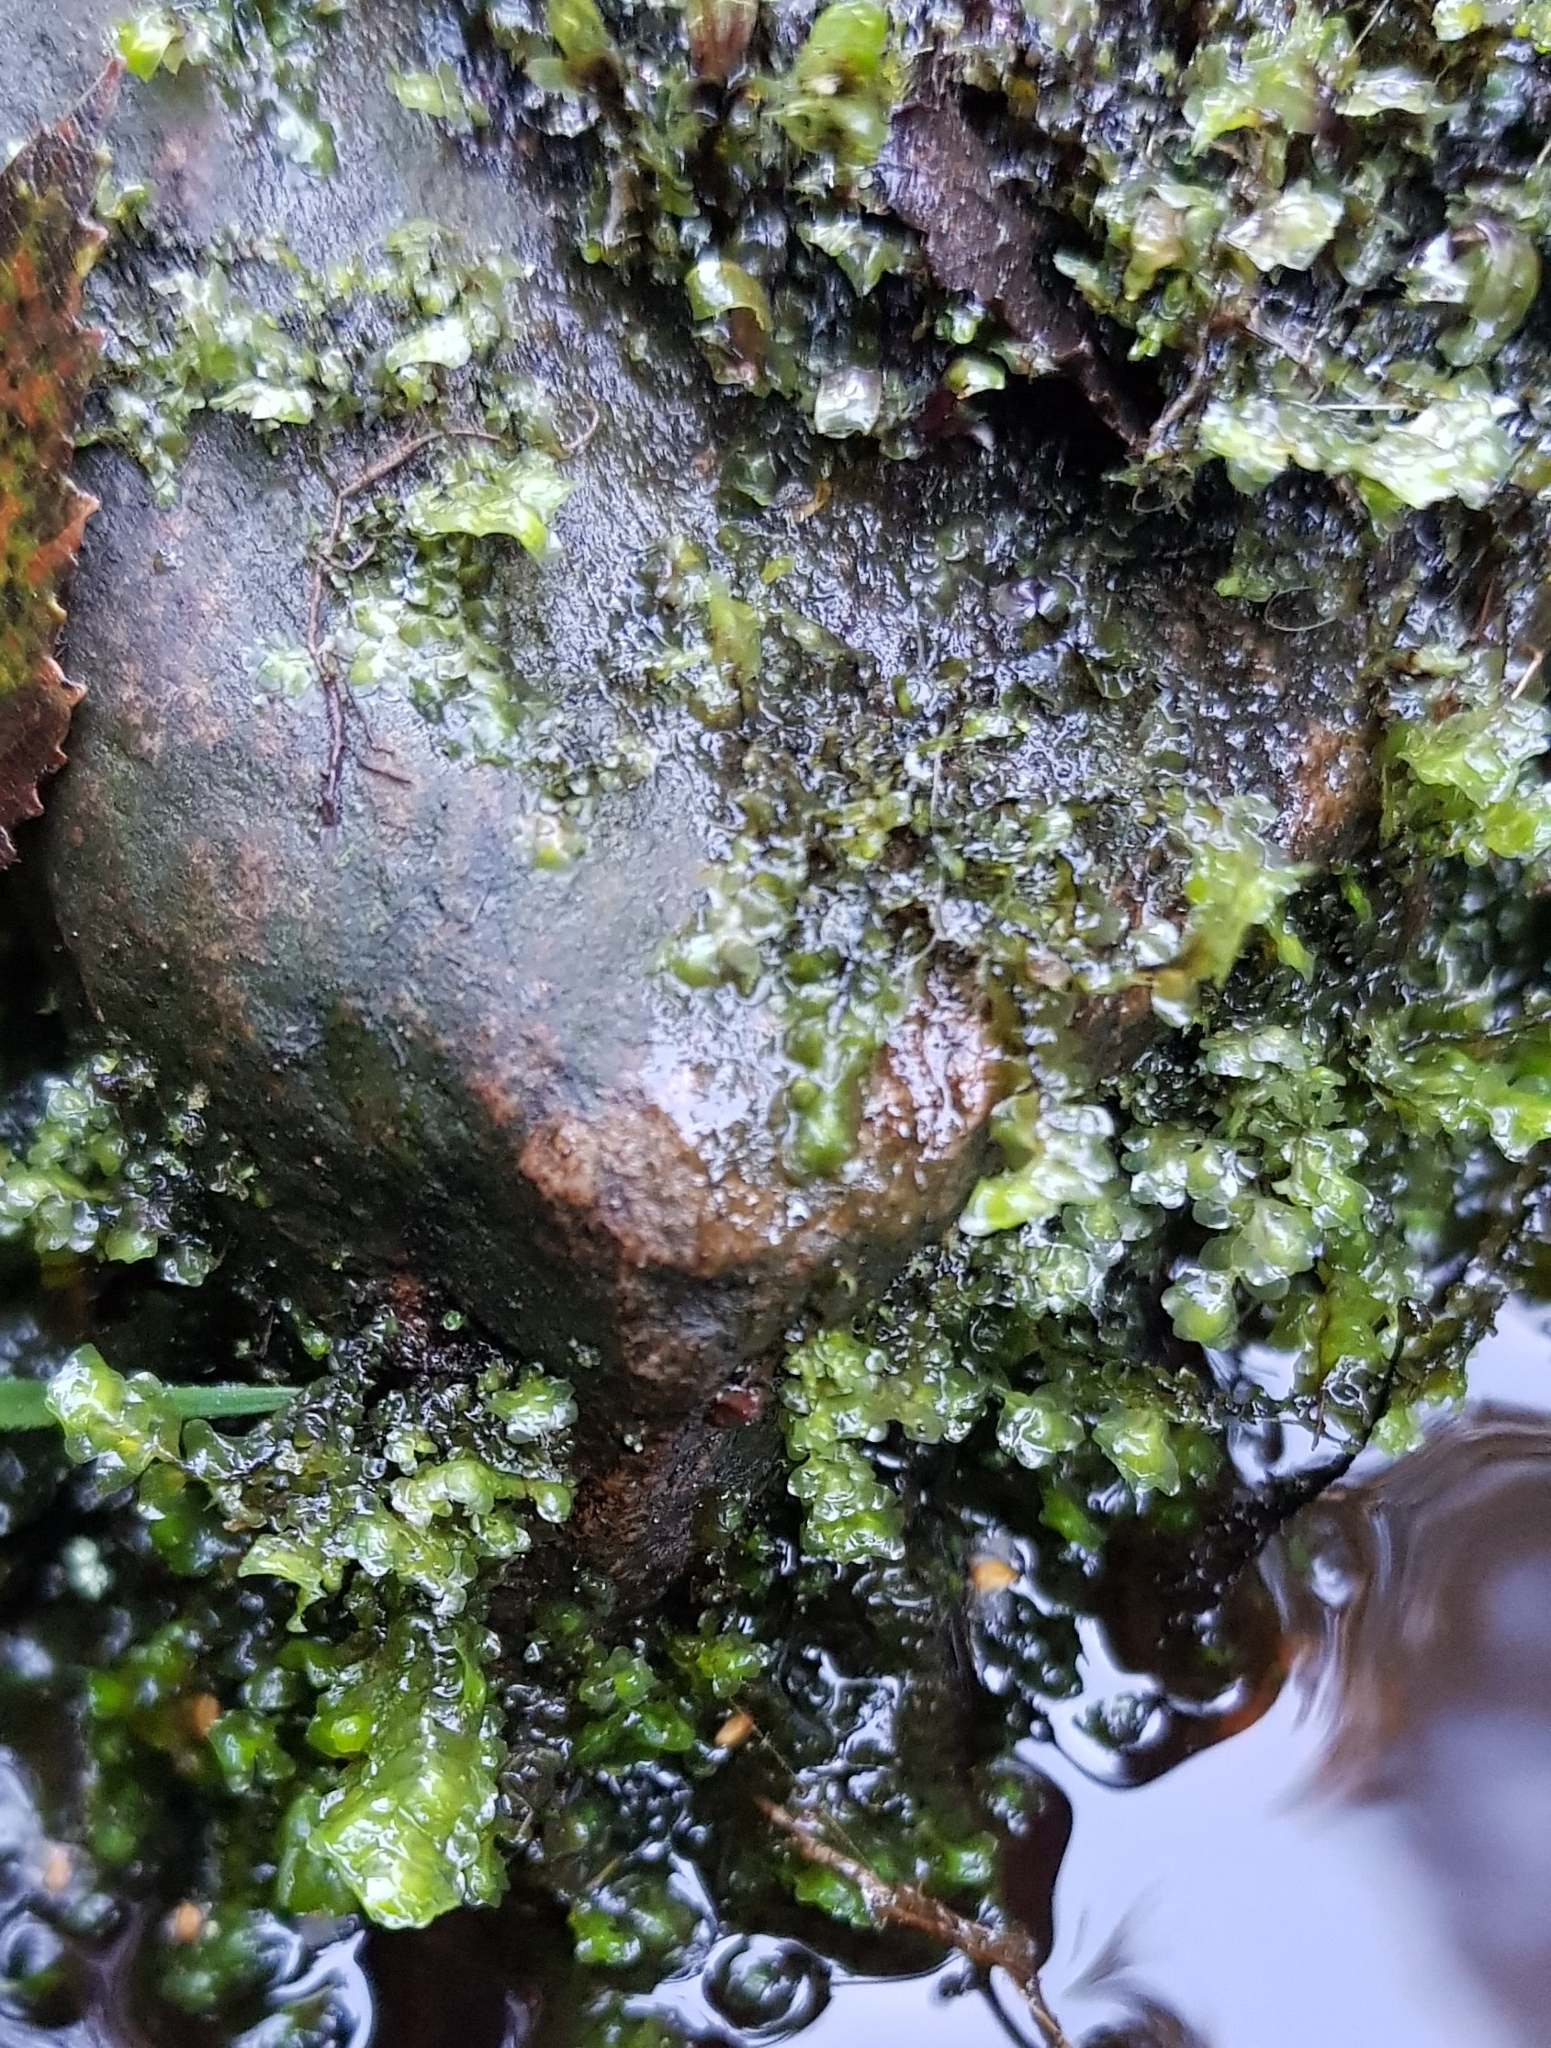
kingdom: Plantae
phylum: Marchantiophyta
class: Jungermanniopsida
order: Jungermanniales
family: Scapaniaceae
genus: Scapania
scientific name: Scapania undulata
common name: Water earwort
